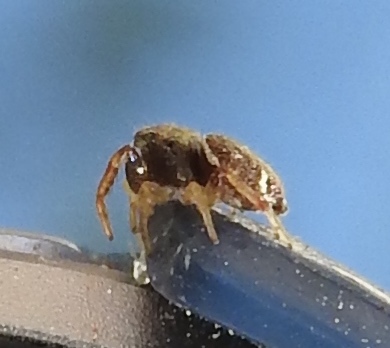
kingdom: Animalia
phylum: Arthropoda
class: Arachnida
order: Araneae
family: Salticidae
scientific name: Salticidae
